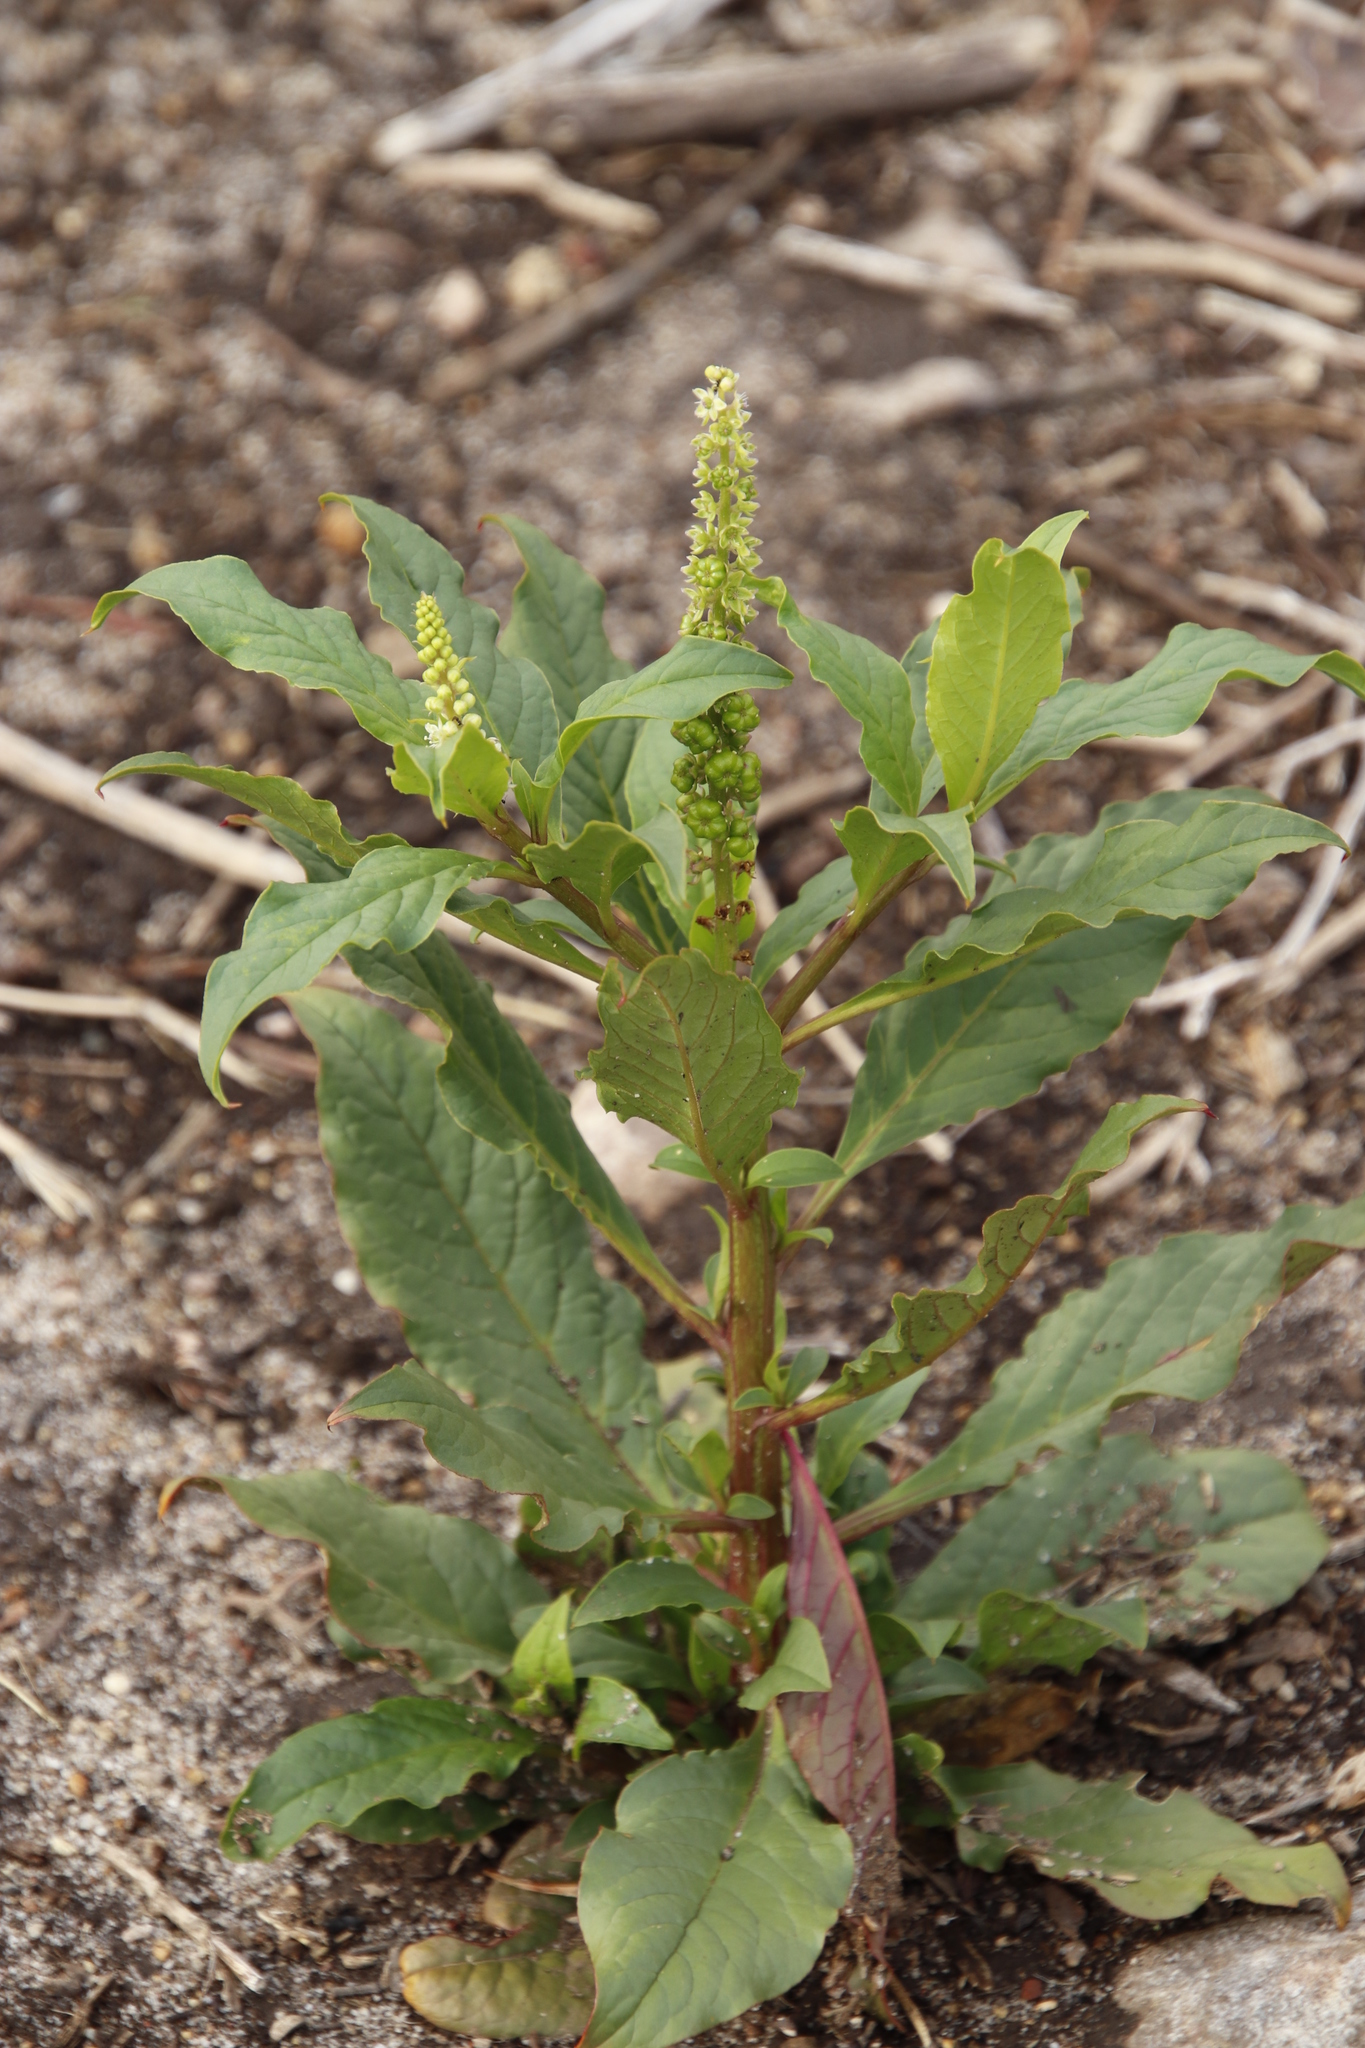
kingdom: Plantae
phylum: Tracheophyta
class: Magnoliopsida
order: Caryophyllales
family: Phytolaccaceae
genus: Phytolacca
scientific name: Phytolacca icosandra
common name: Button pokeweed
